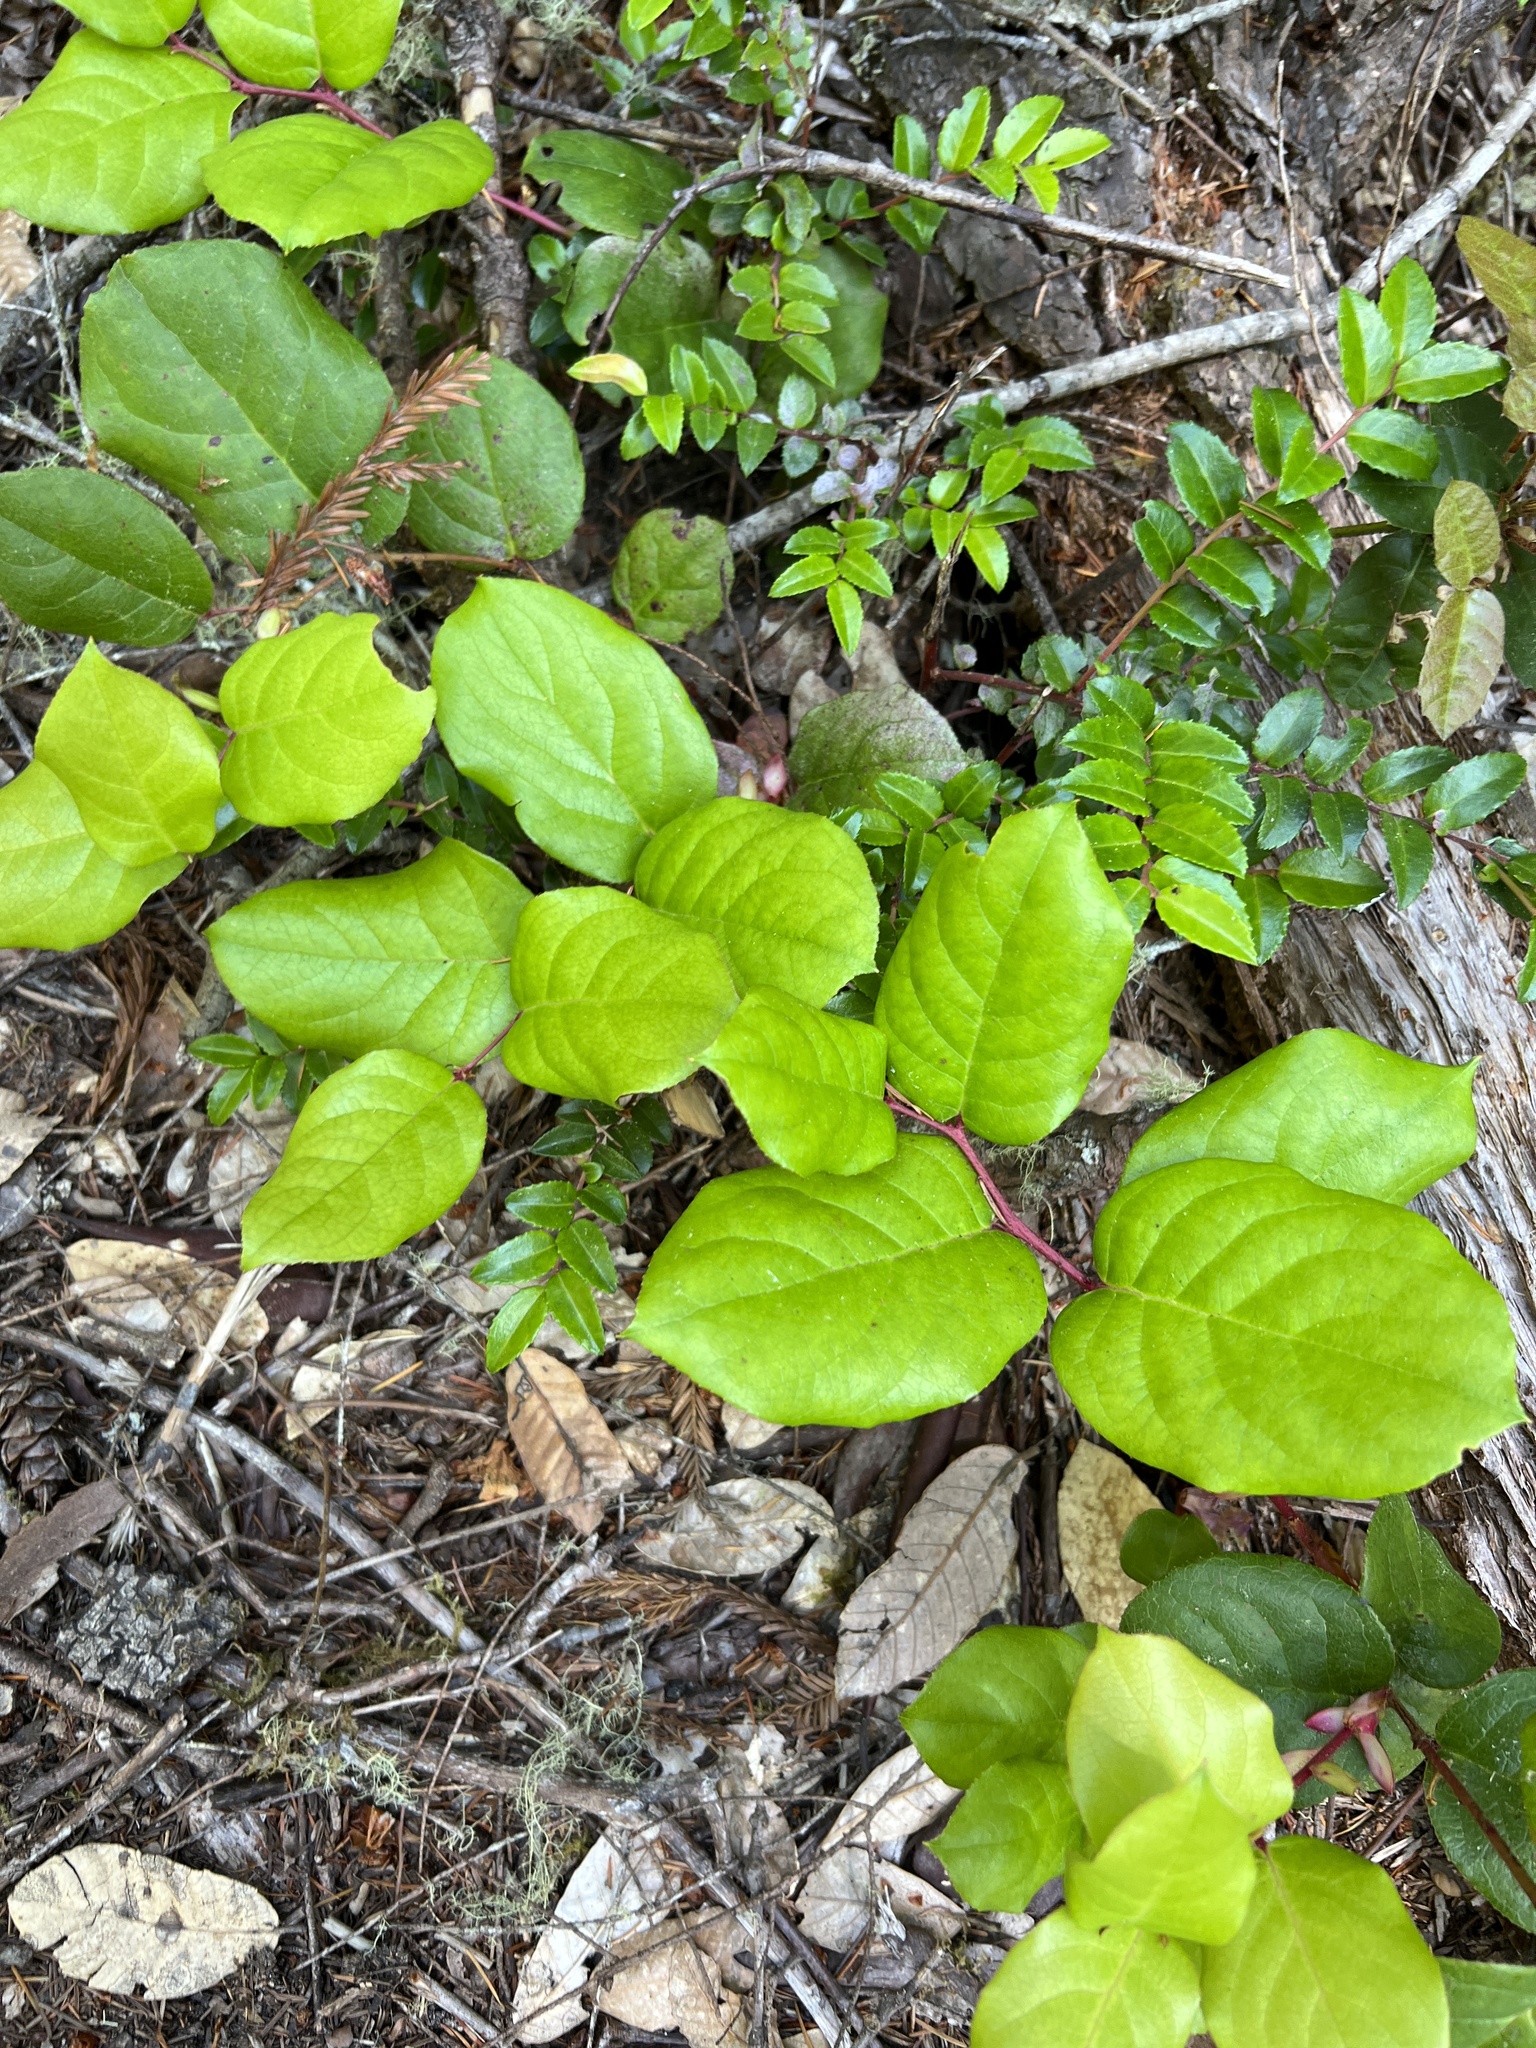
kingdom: Plantae
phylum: Tracheophyta
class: Magnoliopsida
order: Ericales
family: Ericaceae
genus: Gaultheria
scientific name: Gaultheria shallon
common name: Shallon
